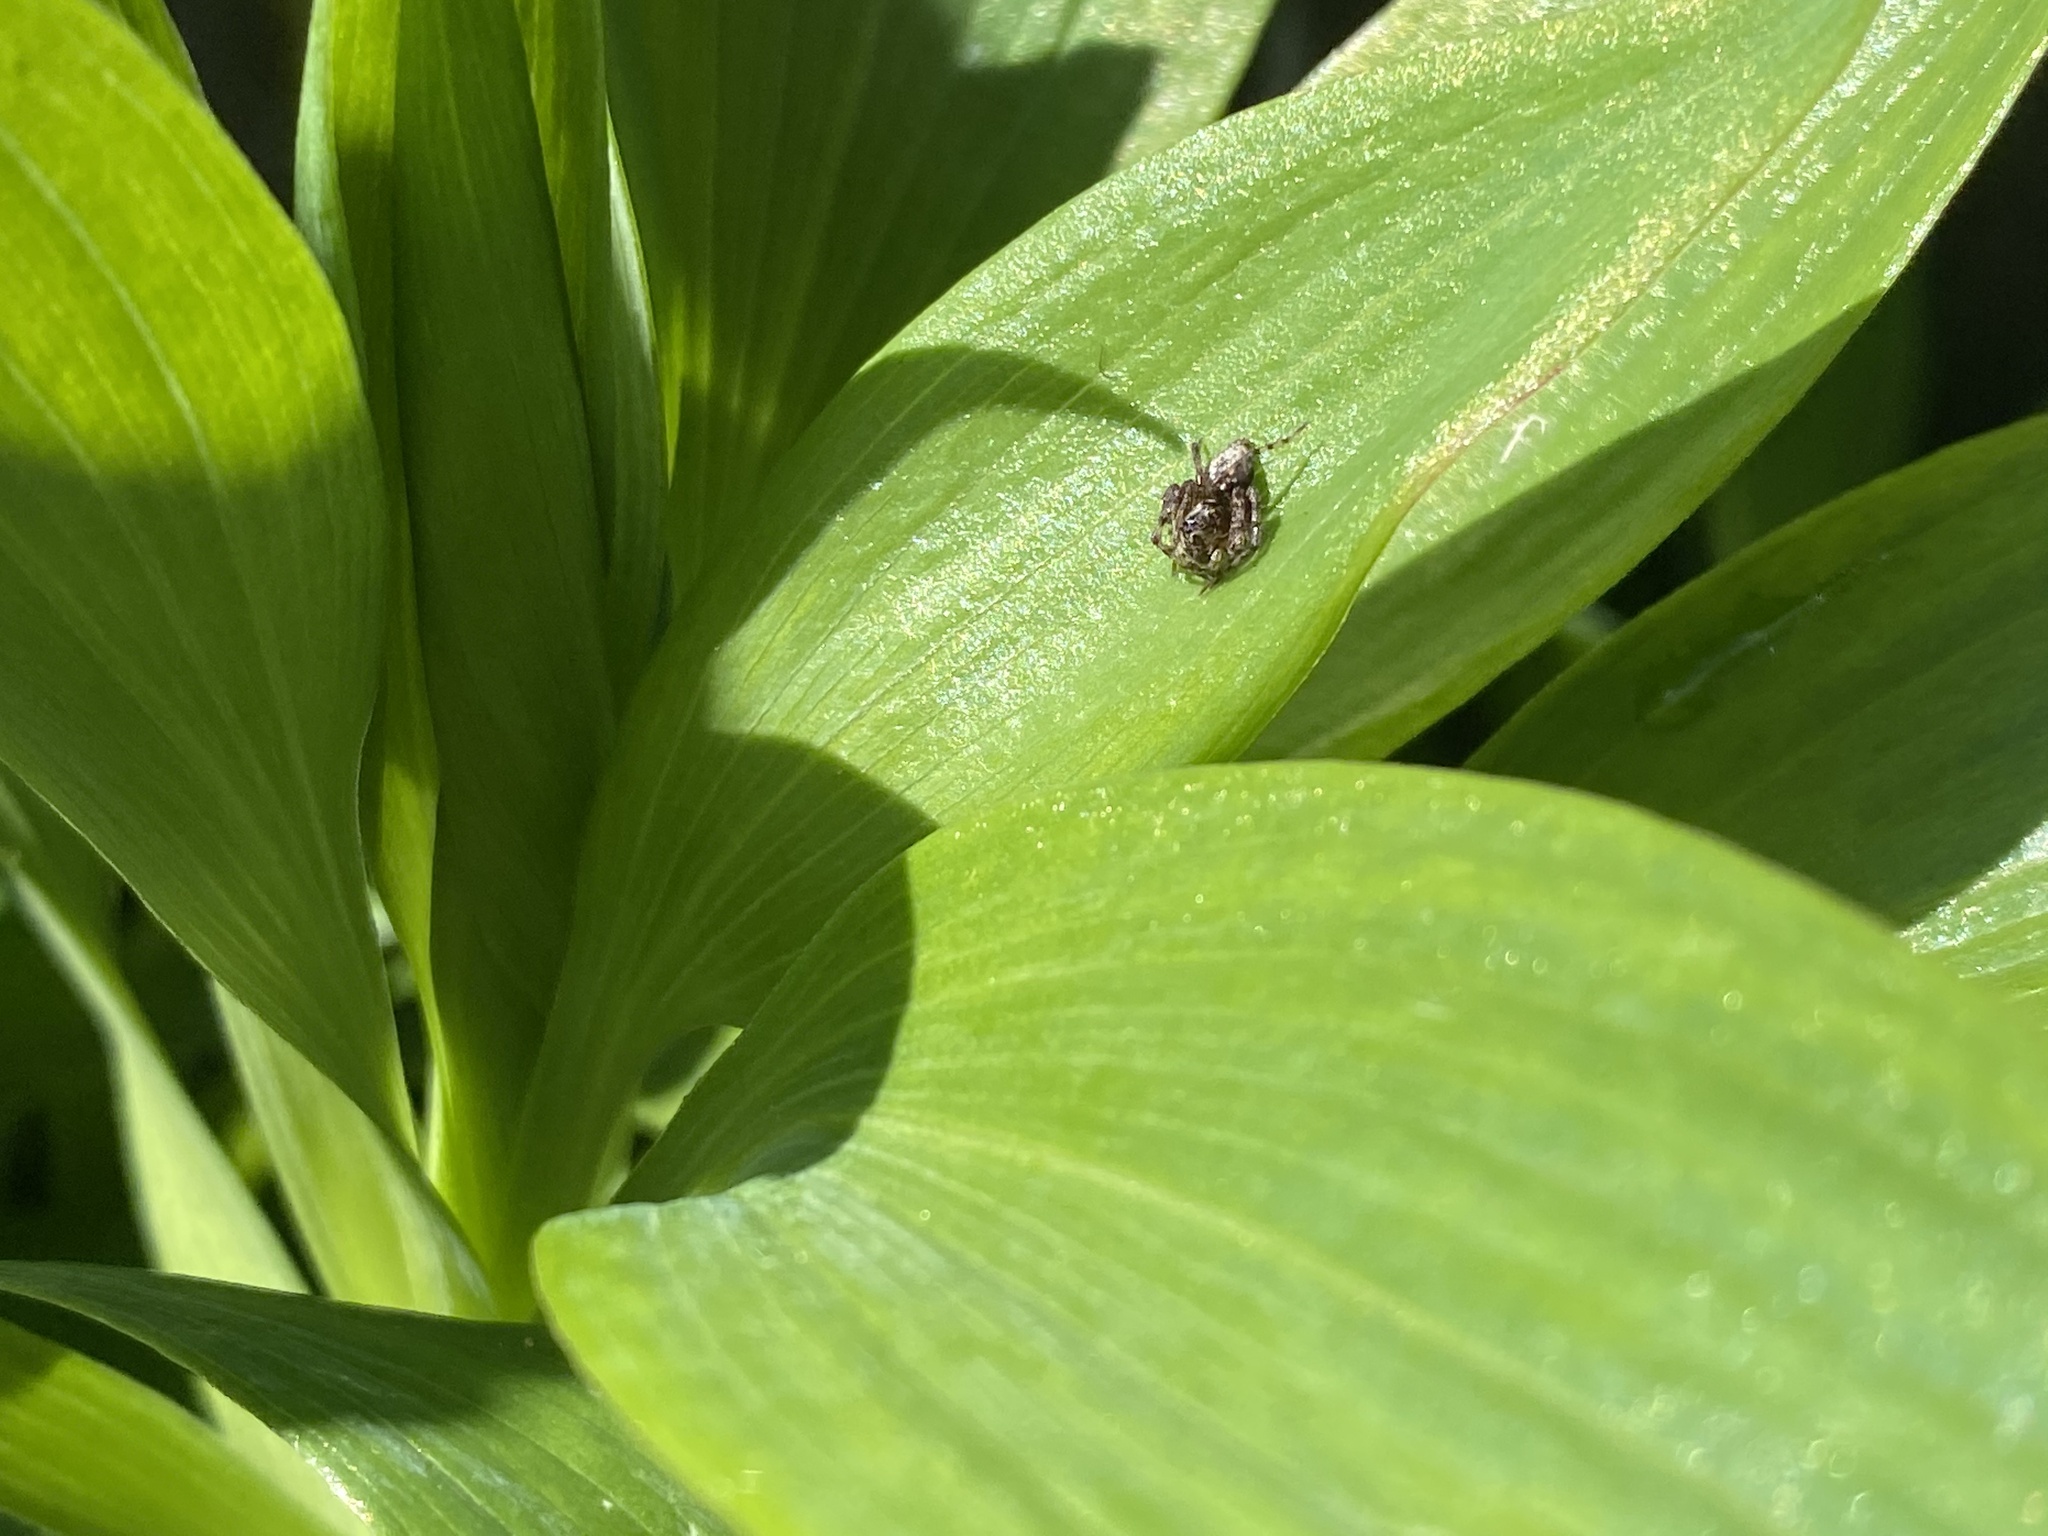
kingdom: Animalia
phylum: Arthropoda
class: Arachnida
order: Araneae
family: Oxyopidae
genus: Oxyopes
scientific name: Oxyopes scalaris
